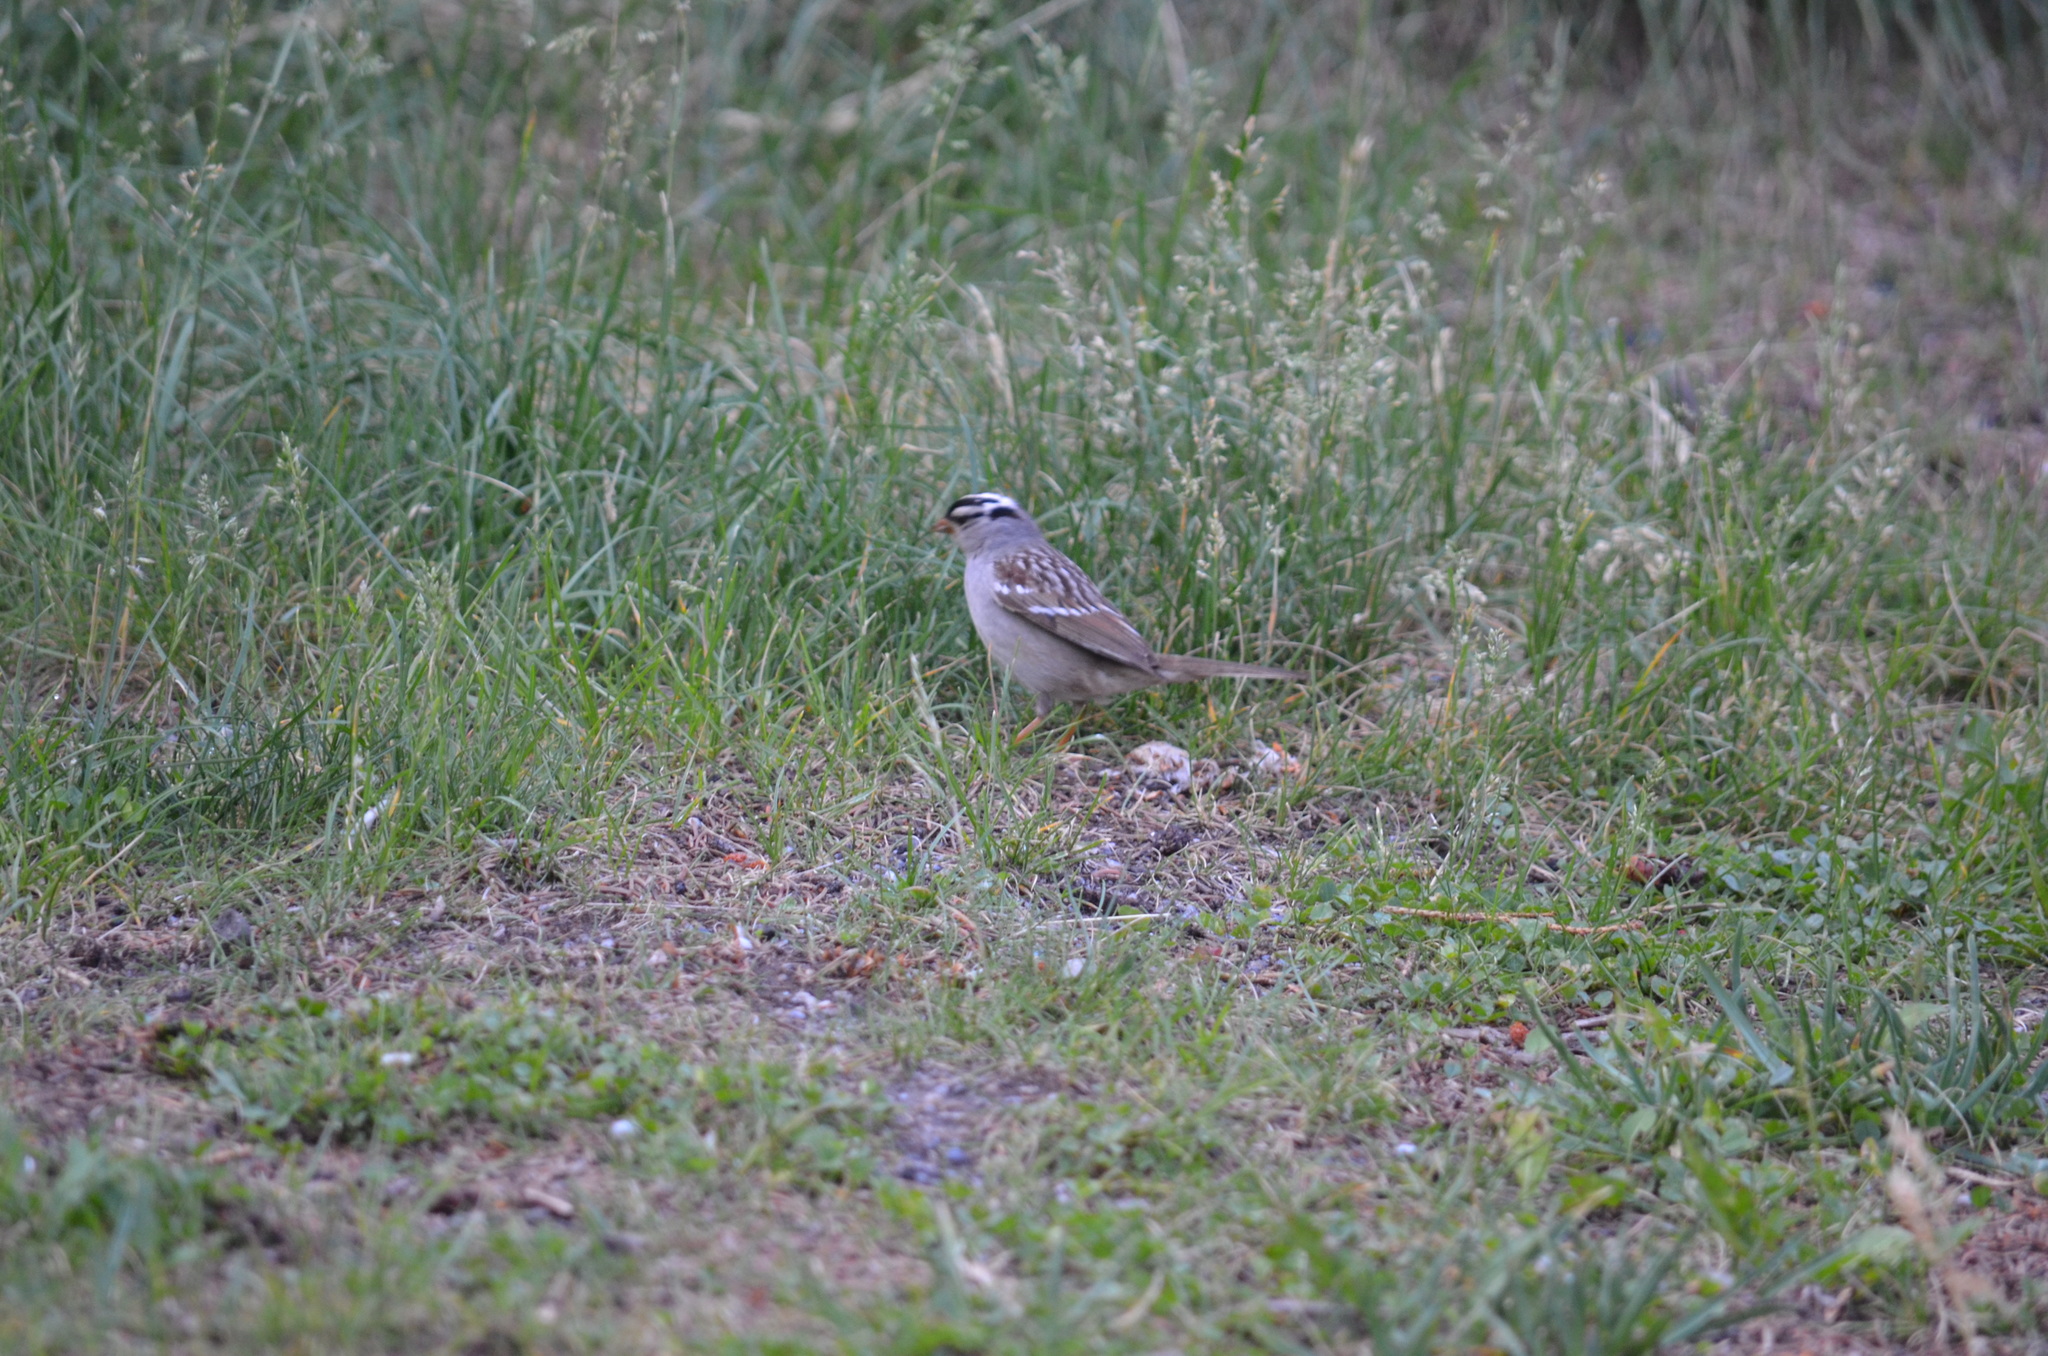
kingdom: Animalia
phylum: Chordata
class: Aves
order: Passeriformes
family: Passerellidae
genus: Zonotrichia
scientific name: Zonotrichia leucophrys
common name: White-crowned sparrow
